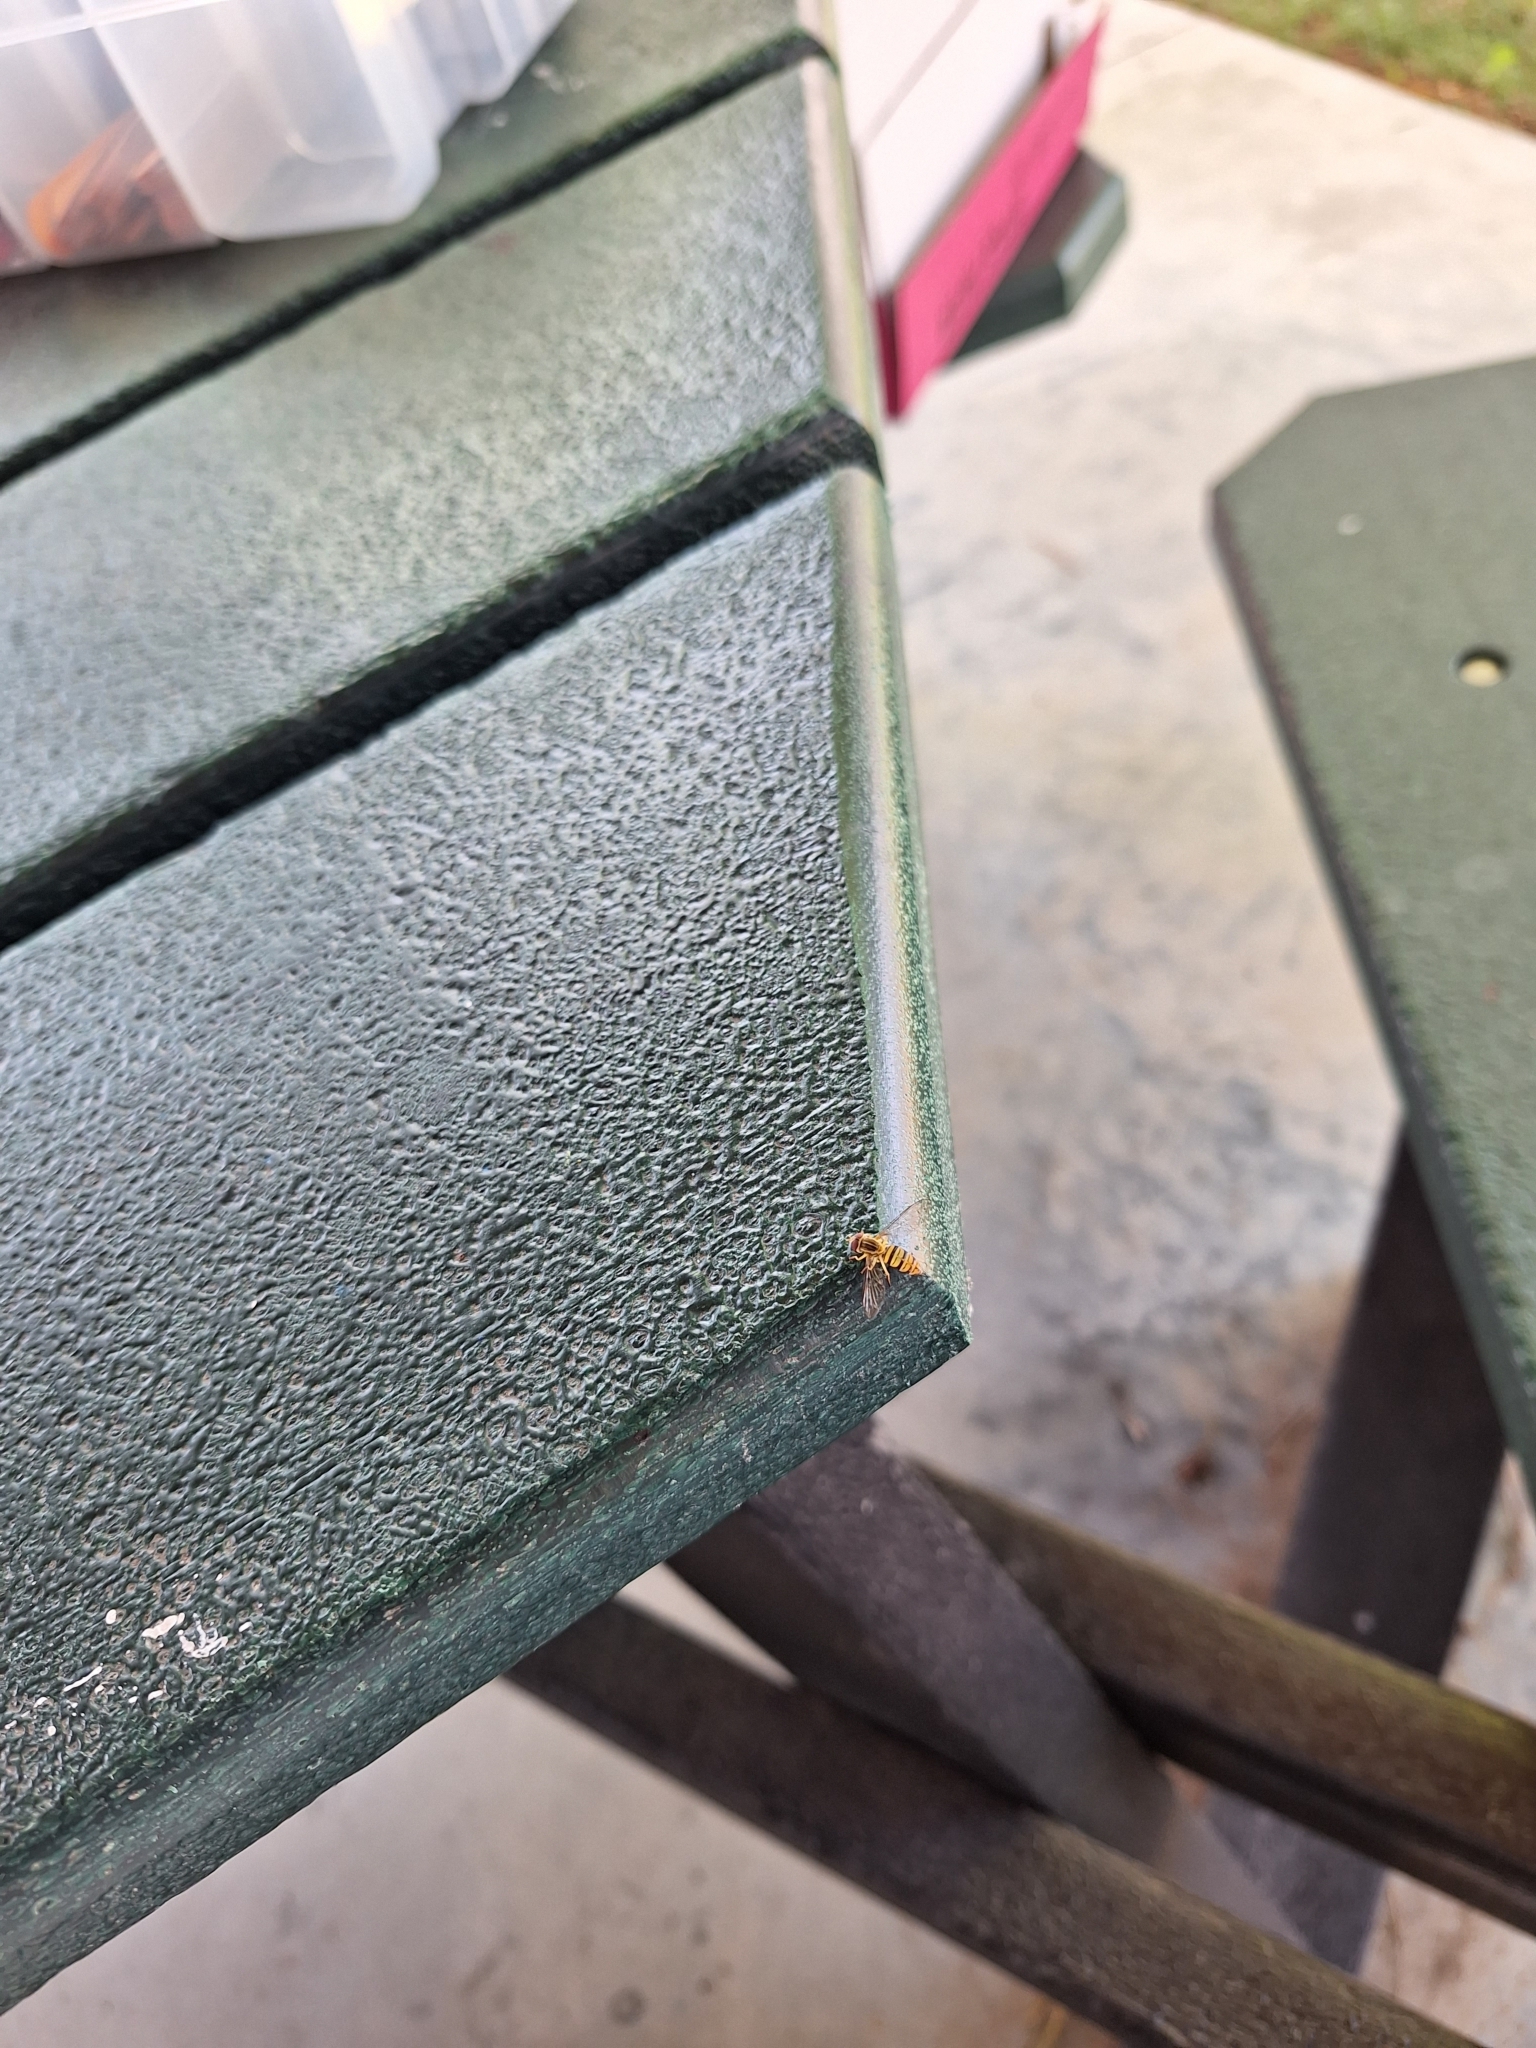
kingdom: Animalia
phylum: Arthropoda
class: Insecta
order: Diptera
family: Syrphidae
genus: Toxomerus
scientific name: Toxomerus politus
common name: Maize calligrapher
